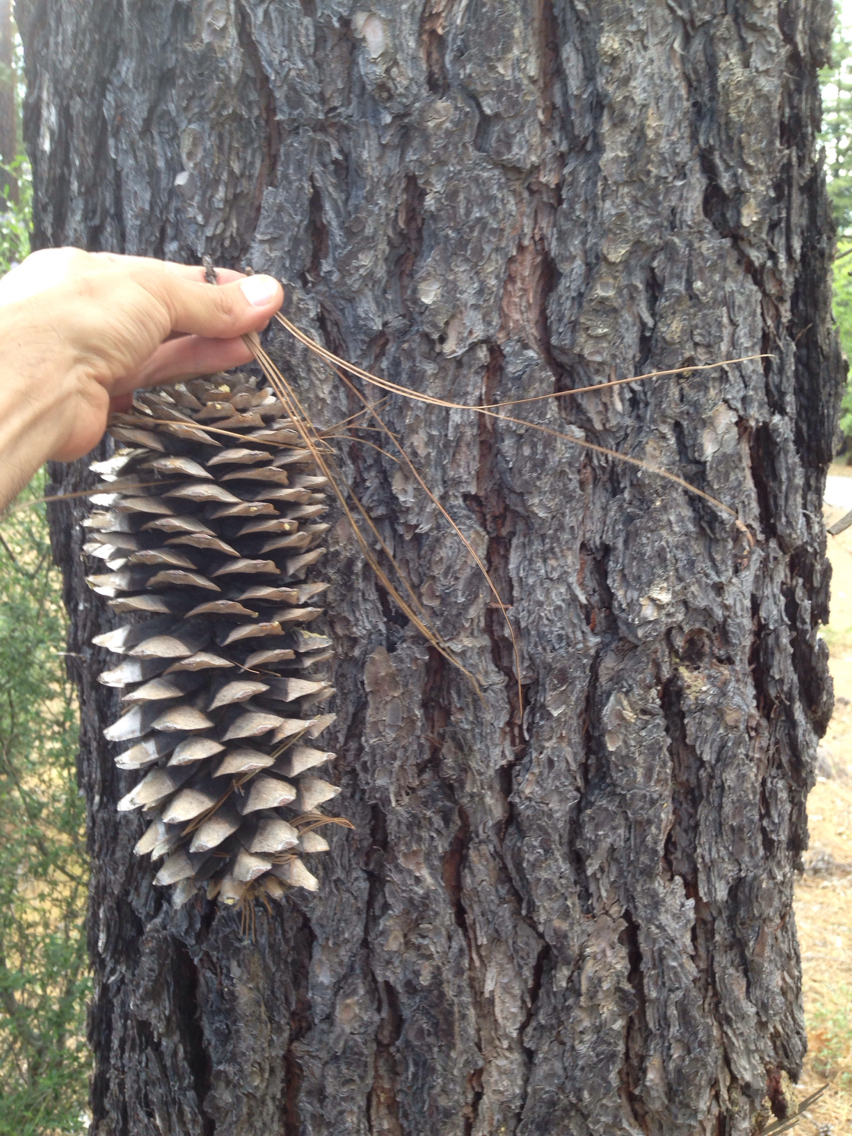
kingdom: Plantae
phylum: Tracheophyta
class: Pinopsida
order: Pinales
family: Pinaceae
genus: Pinus
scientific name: Pinus lambertiana
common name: Sugar pine
